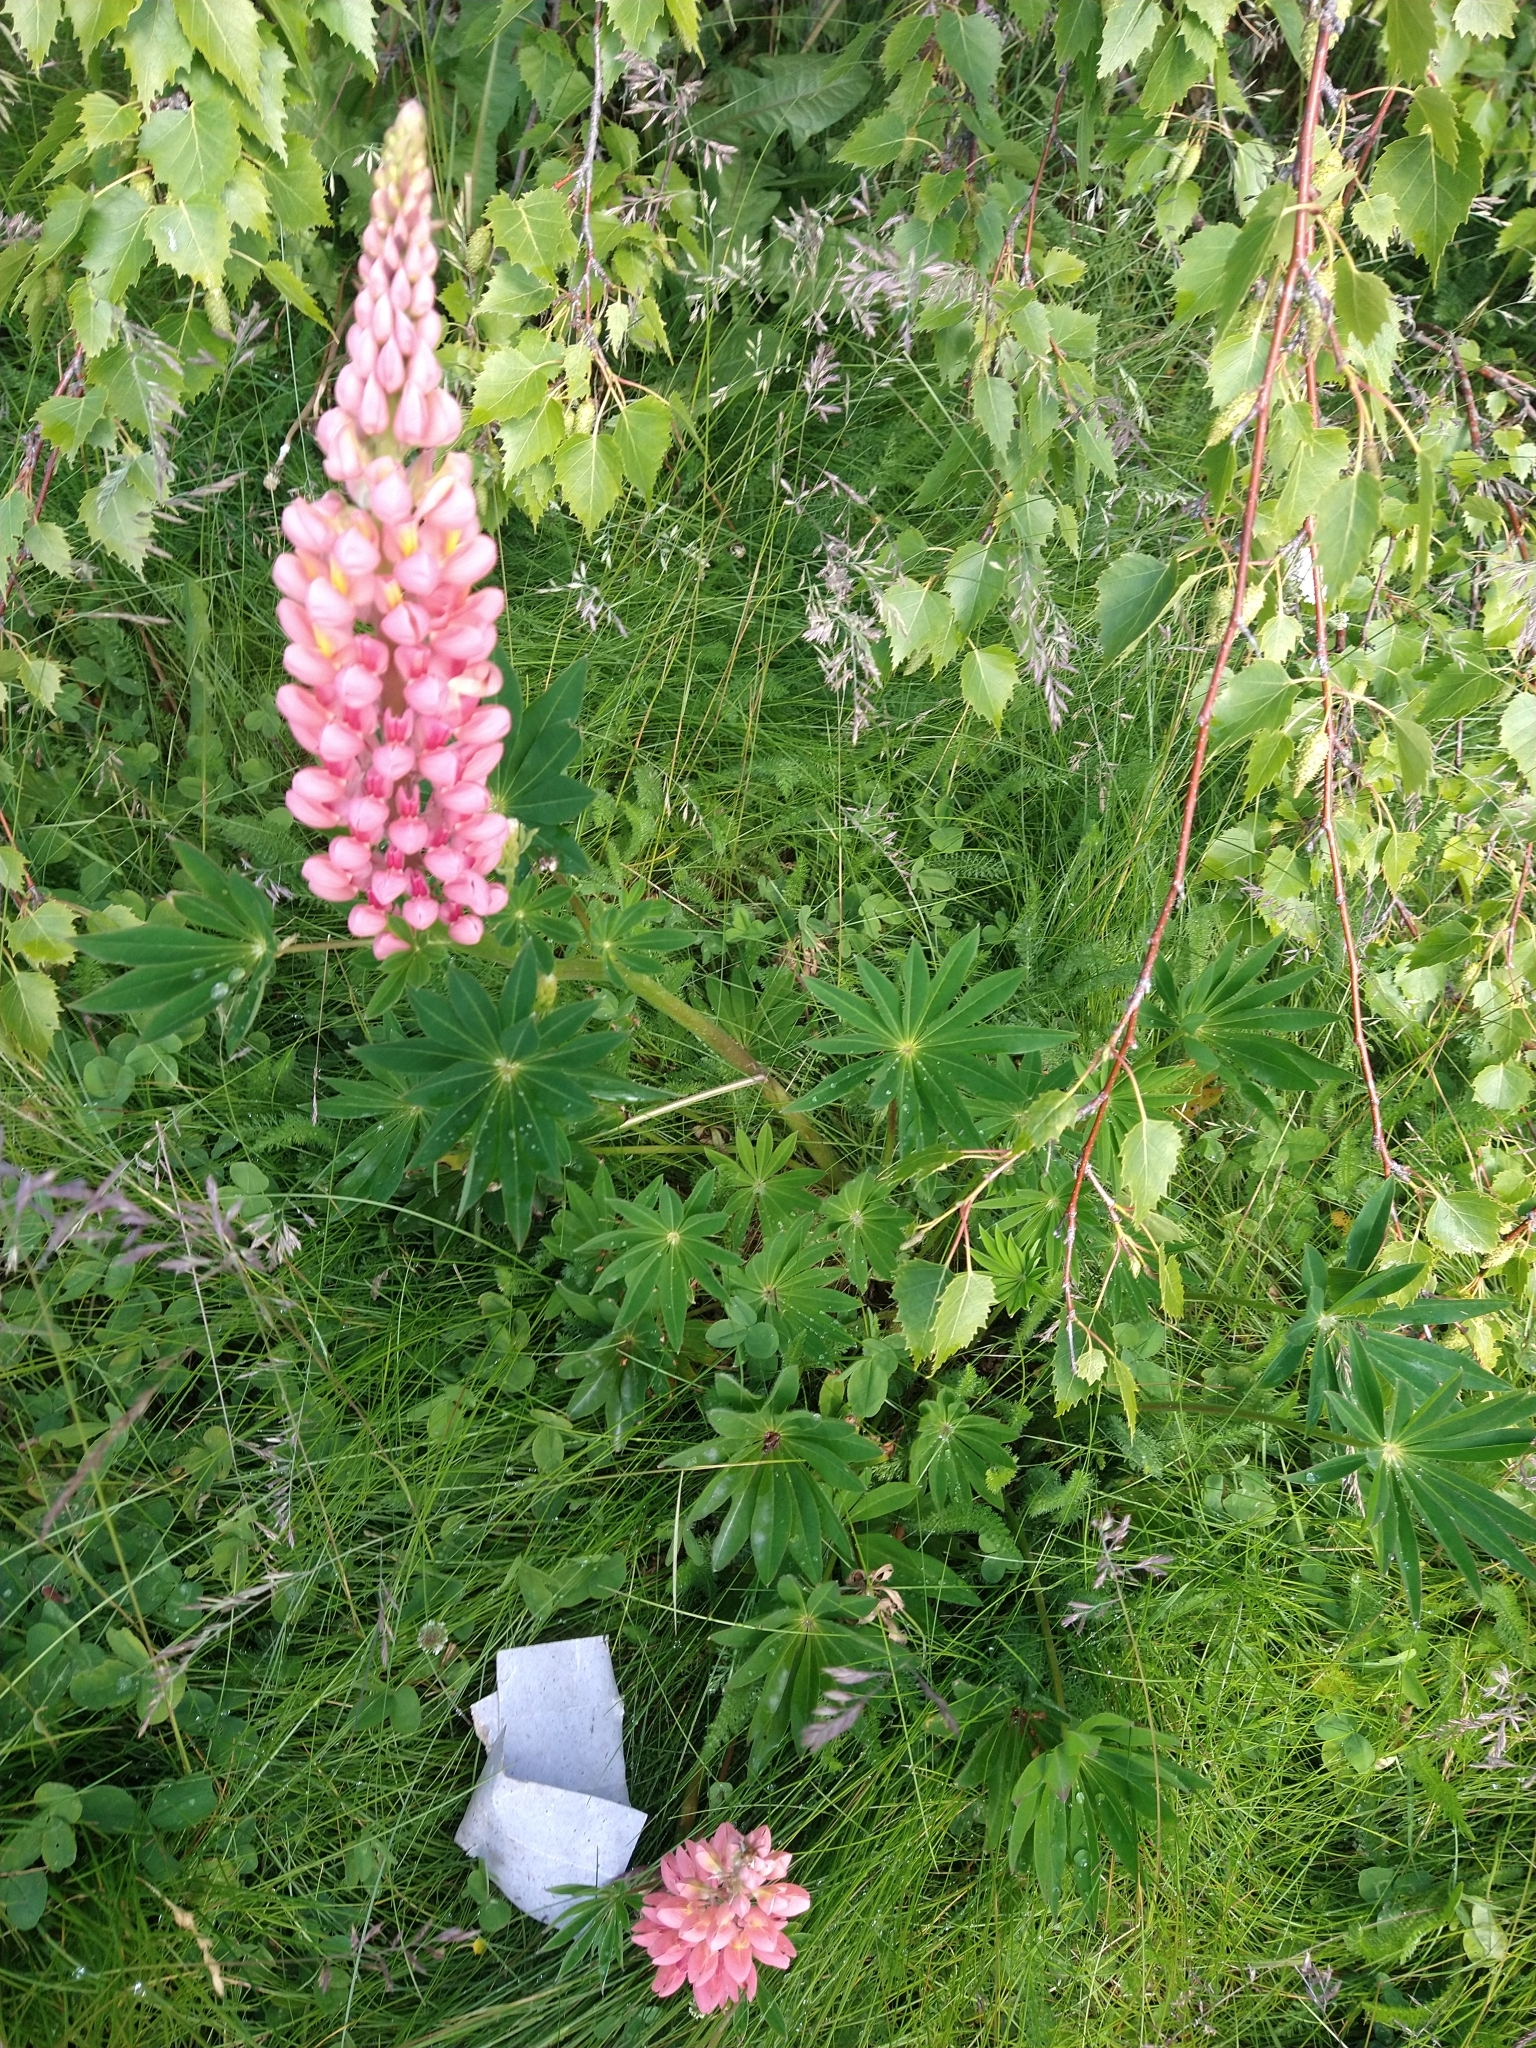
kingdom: Plantae
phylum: Tracheophyta
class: Magnoliopsida
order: Fabales
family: Fabaceae
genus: Lupinus
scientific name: Lupinus polyphyllus
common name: Garden lupin
